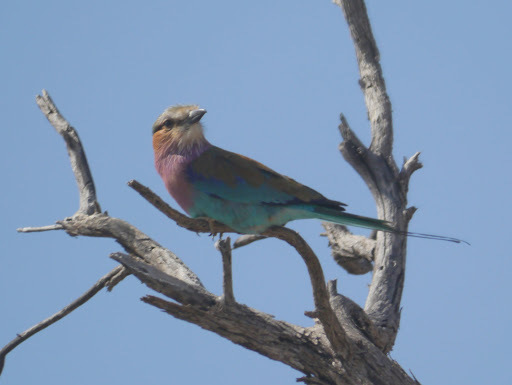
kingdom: Animalia
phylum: Chordata
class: Aves
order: Coraciiformes
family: Coraciidae
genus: Coracias
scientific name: Coracias caudatus
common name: Lilac-breasted roller
